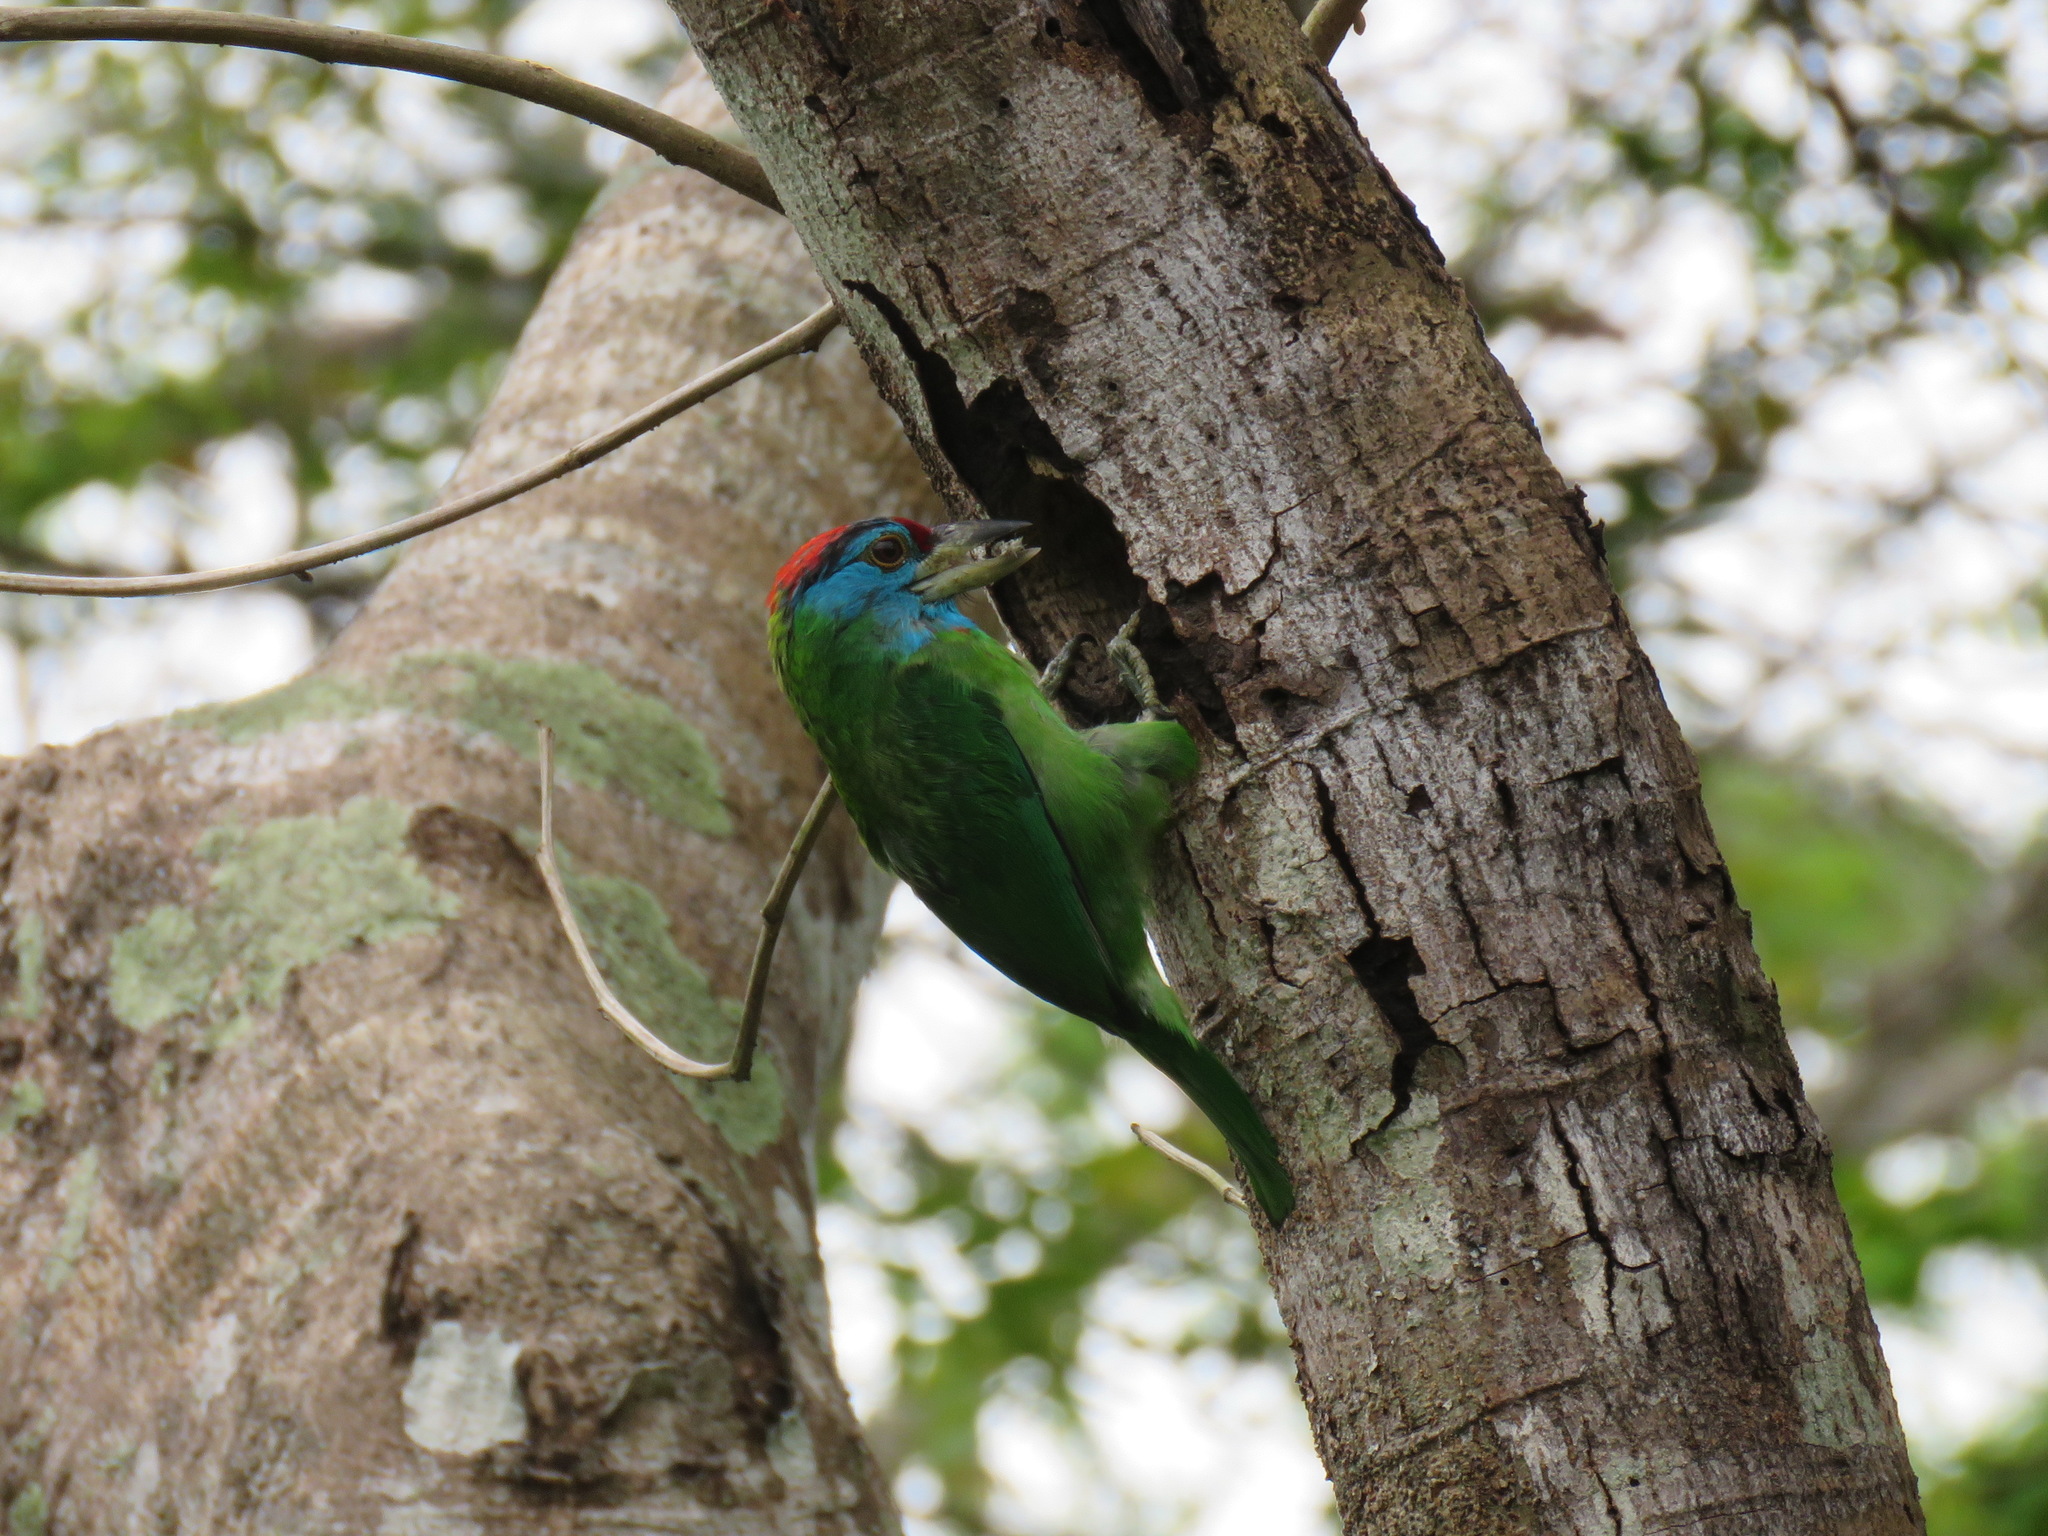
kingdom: Animalia
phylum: Chordata
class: Aves
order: Piciformes
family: Megalaimidae
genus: Psilopogon
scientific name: Psilopogon asiaticus
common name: Blue-throated barbet
